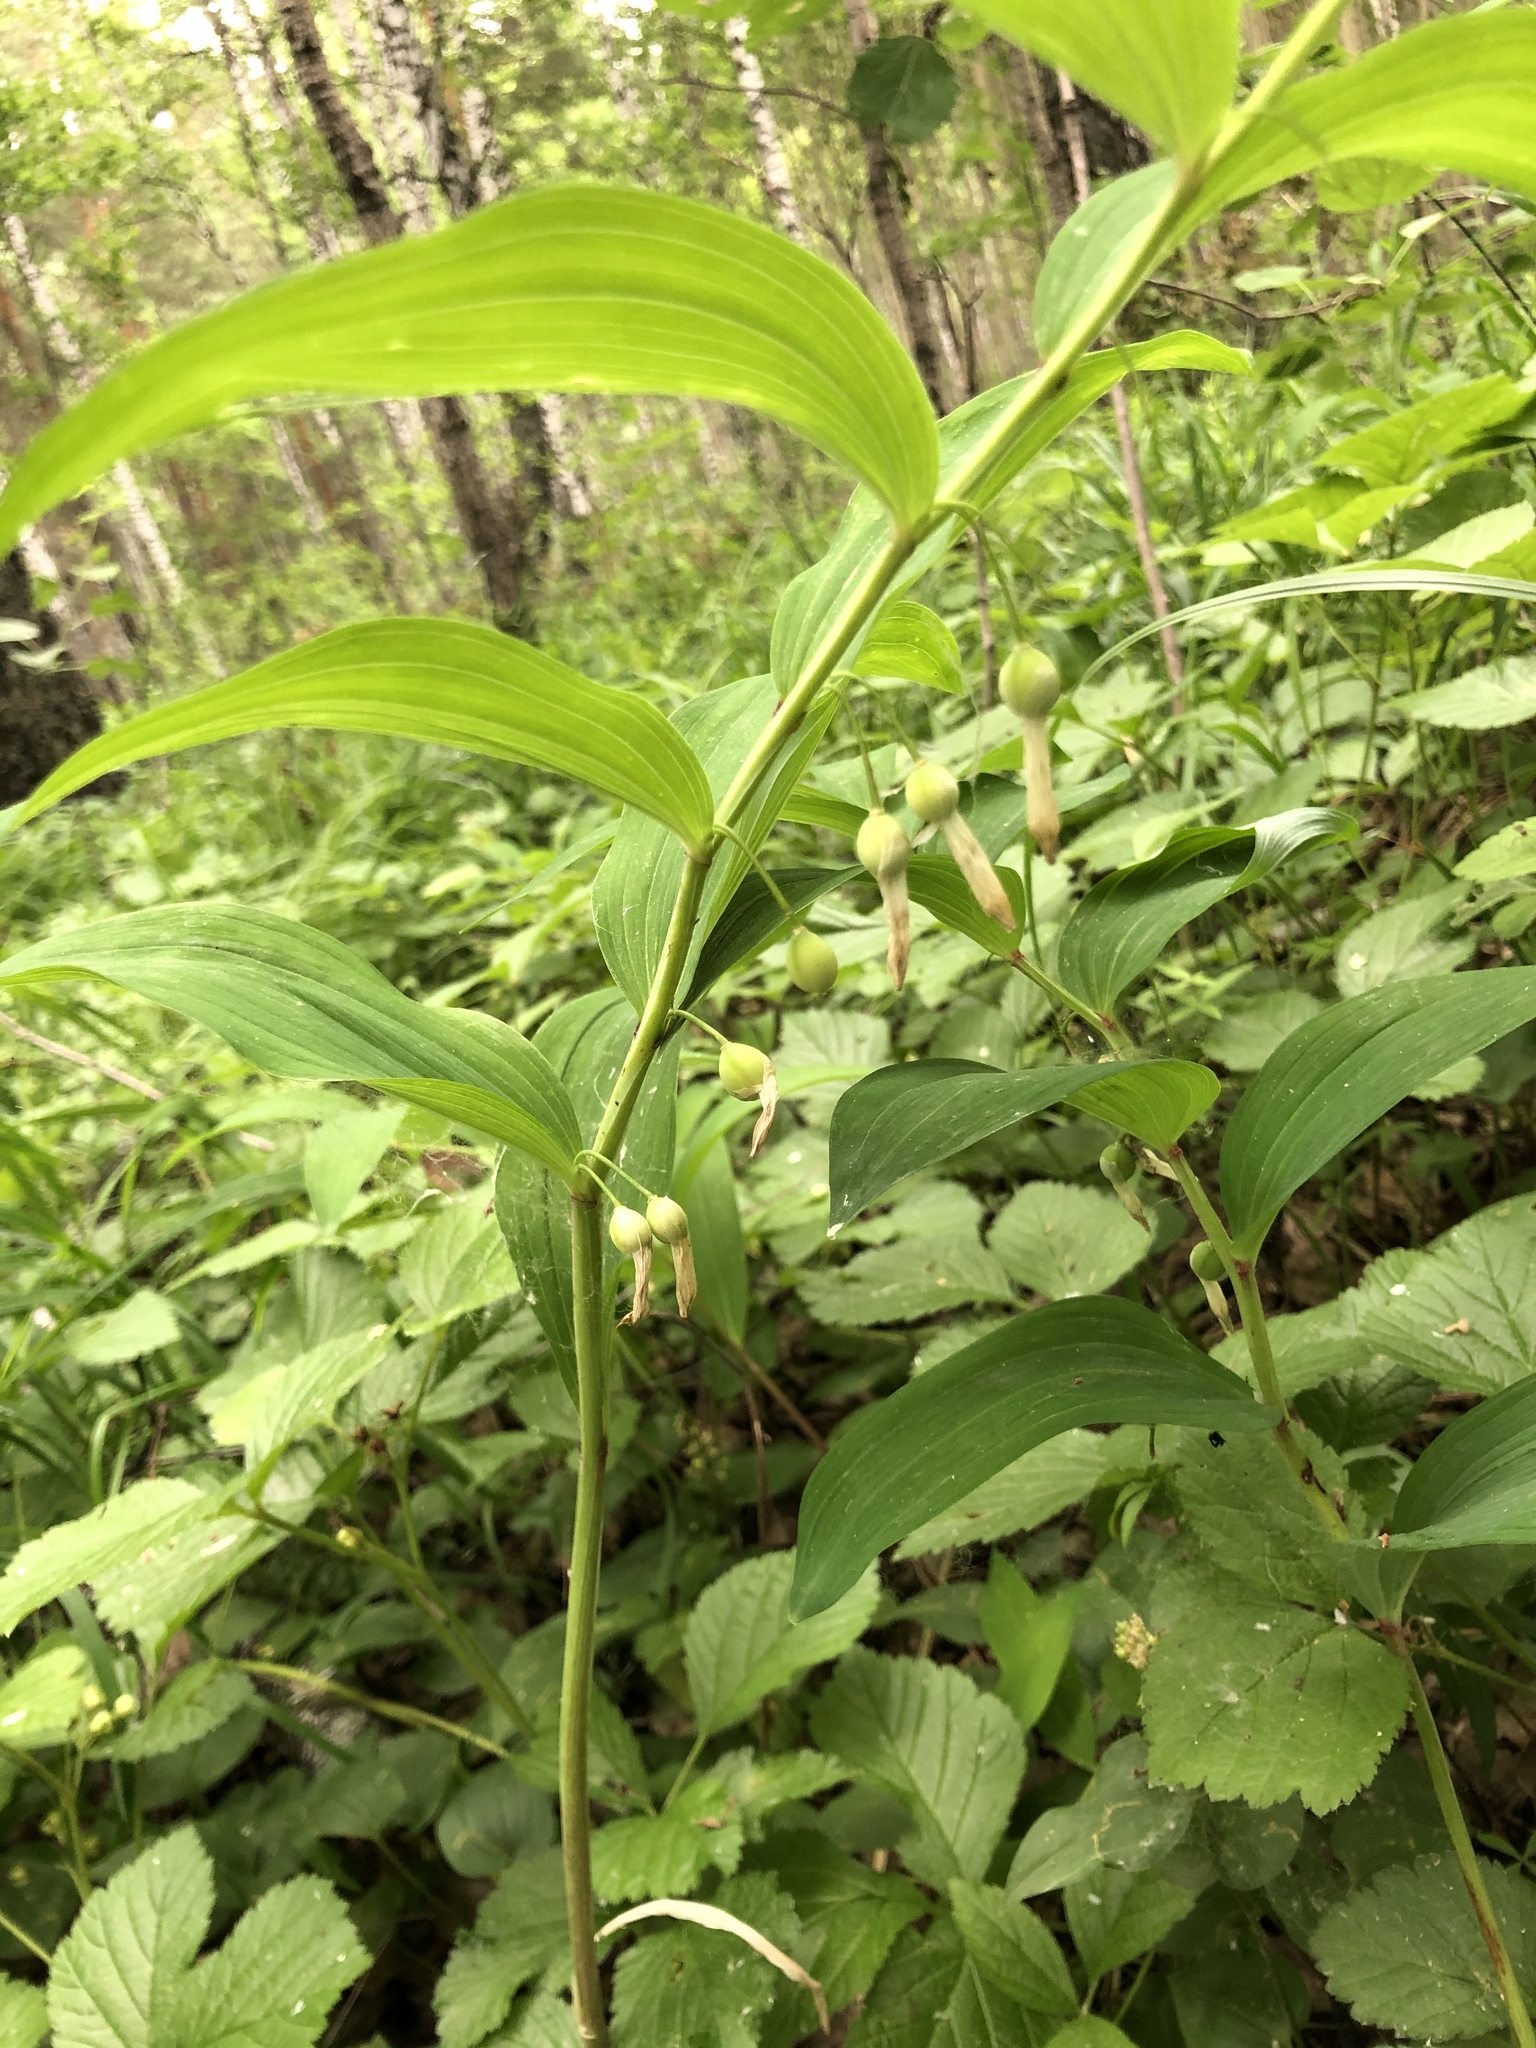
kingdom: Plantae
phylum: Tracheophyta
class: Liliopsida
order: Asparagales
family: Asparagaceae
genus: Polygonatum
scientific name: Polygonatum odoratum
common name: Angular solomon's-seal
